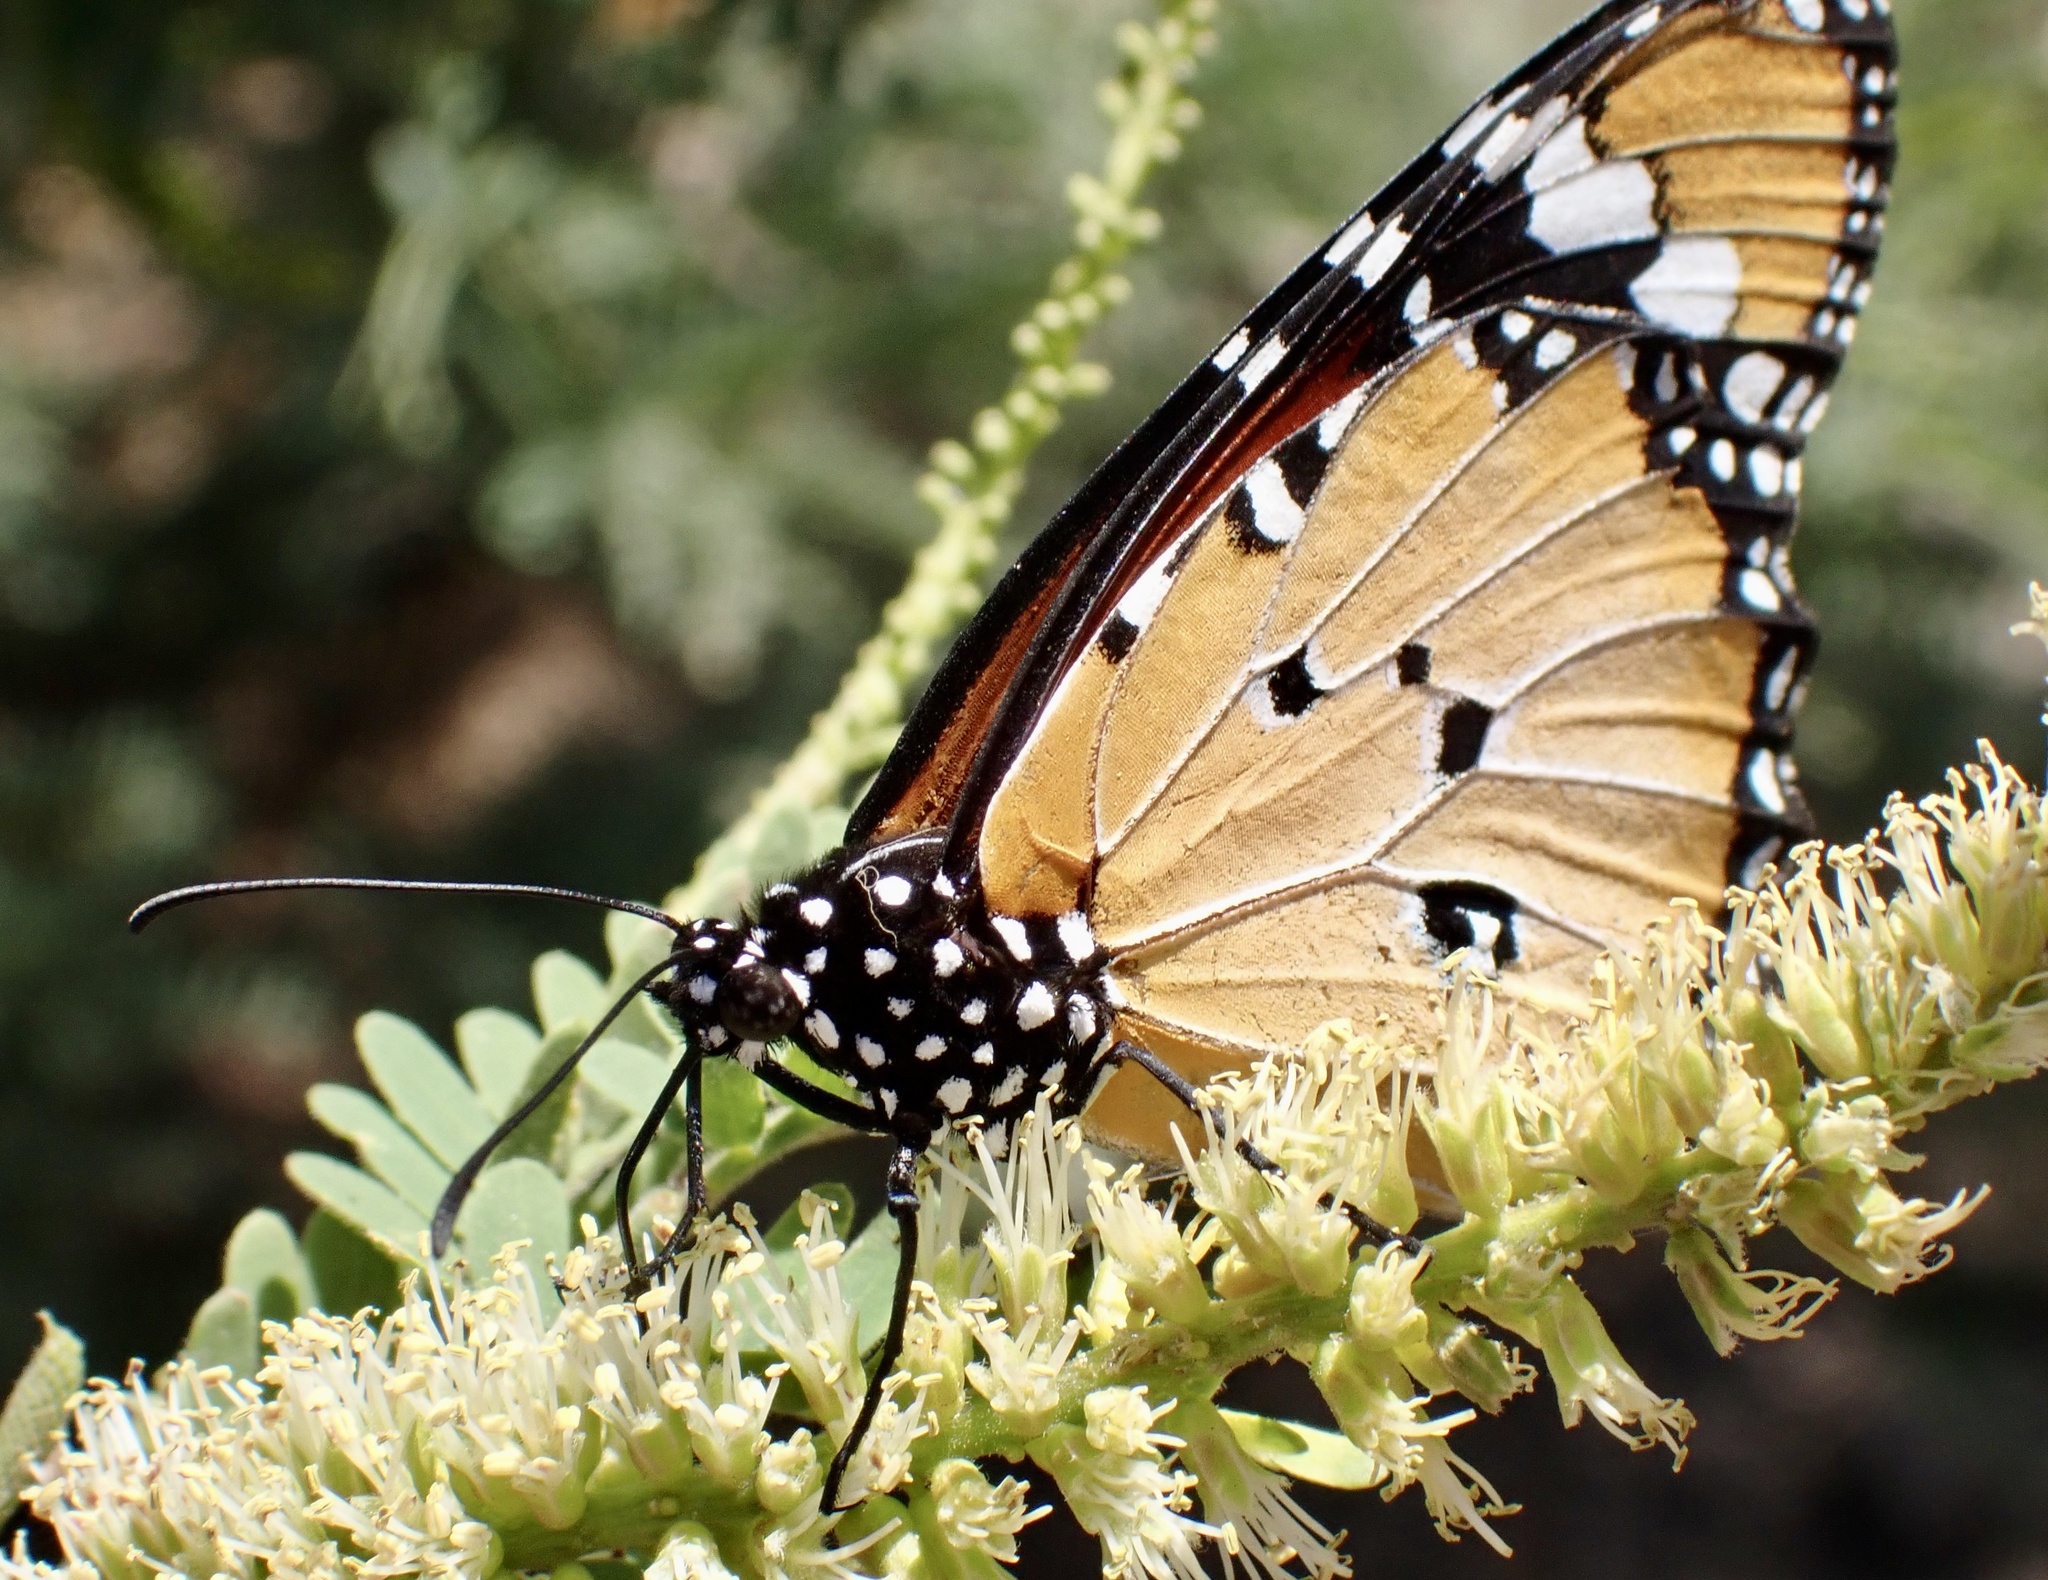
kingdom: Animalia
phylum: Arthropoda
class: Insecta
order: Lepidoptera
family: Nymphalidae
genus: Danaus
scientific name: Danaus chrysippus
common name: Plain tiger
